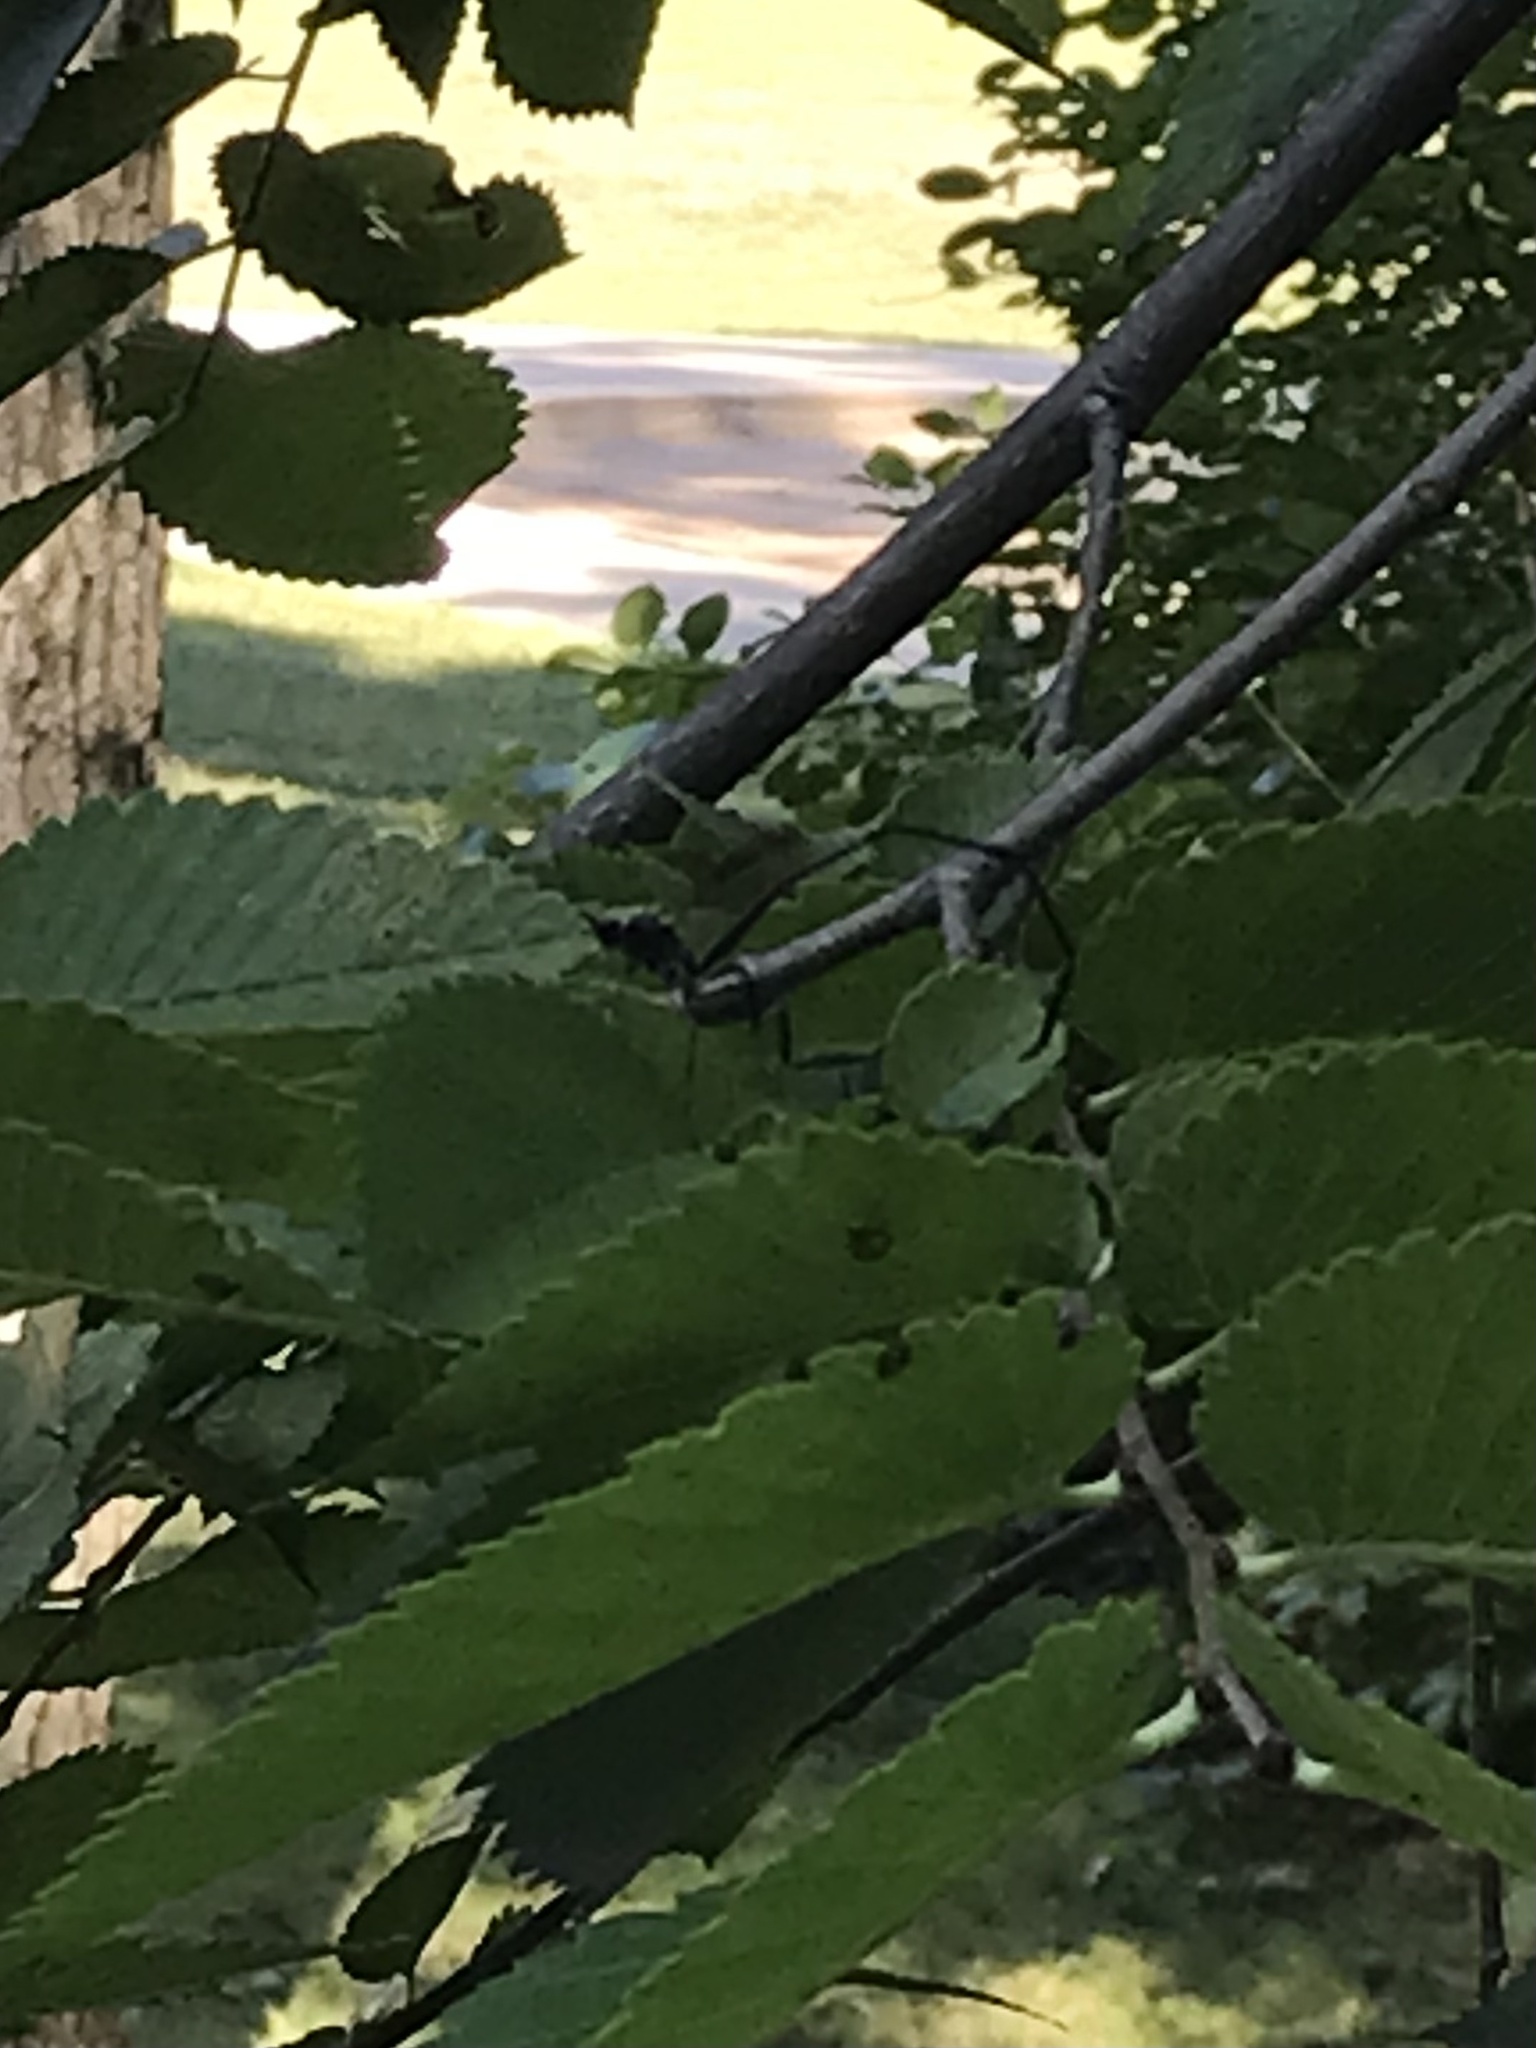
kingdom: Animalia
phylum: Arthropoda
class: Insecta
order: Hymenoptera
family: Pelecinidae
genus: Pelecinus
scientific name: Pelecinus polyturator
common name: American pelecinid wasp
